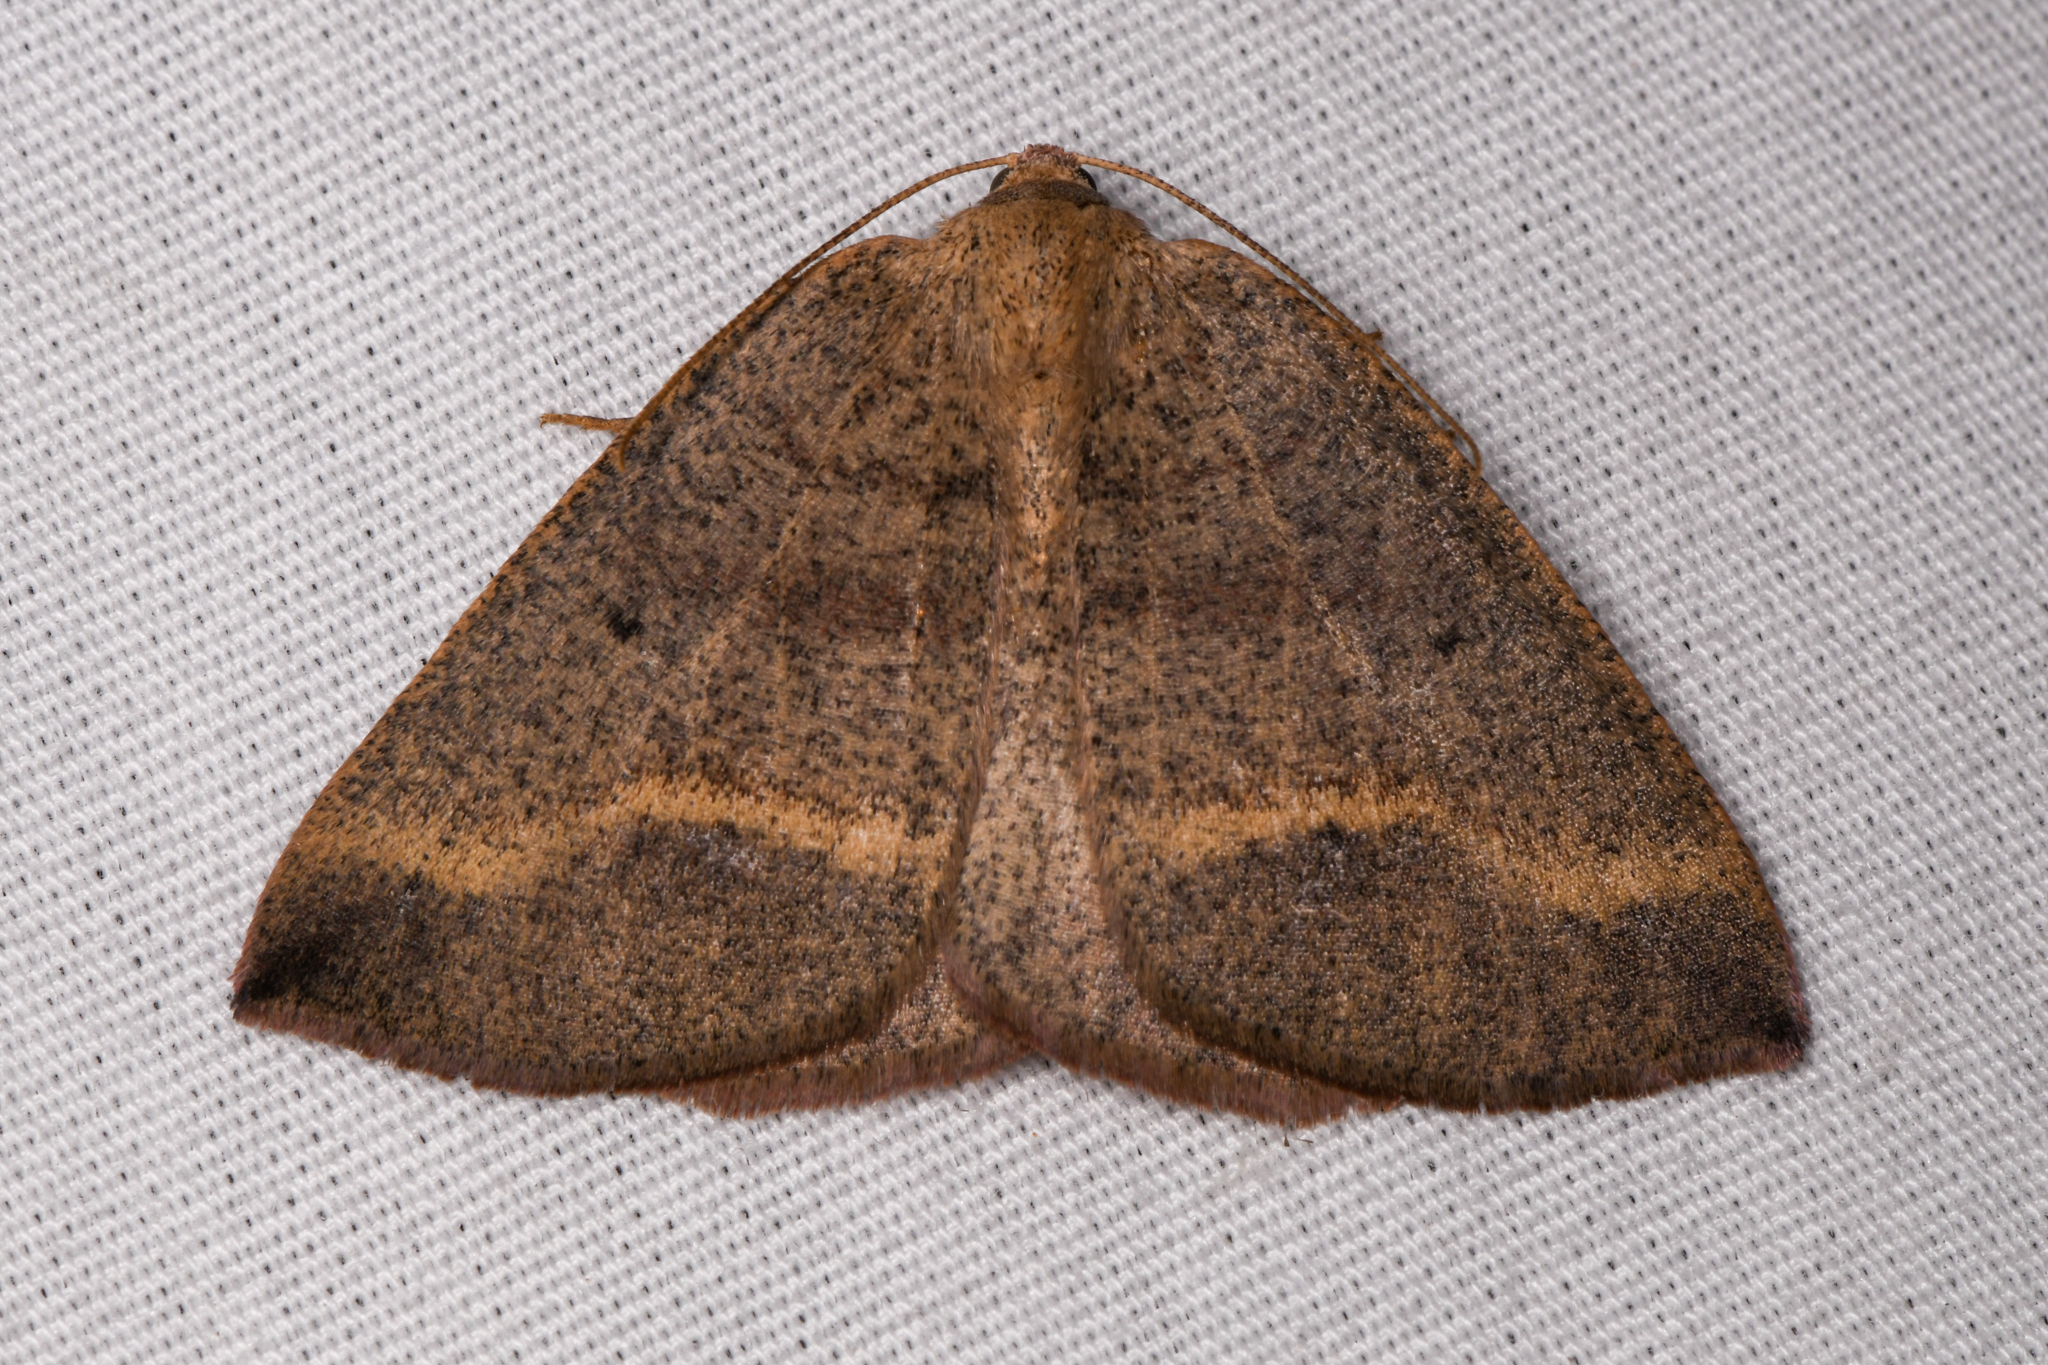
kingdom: Animalia
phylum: Arthropoda
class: Insecta
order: Lepidoptera
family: Geometridae
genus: Drepanulatrix
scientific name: Drepanulatrix unicalcararia
